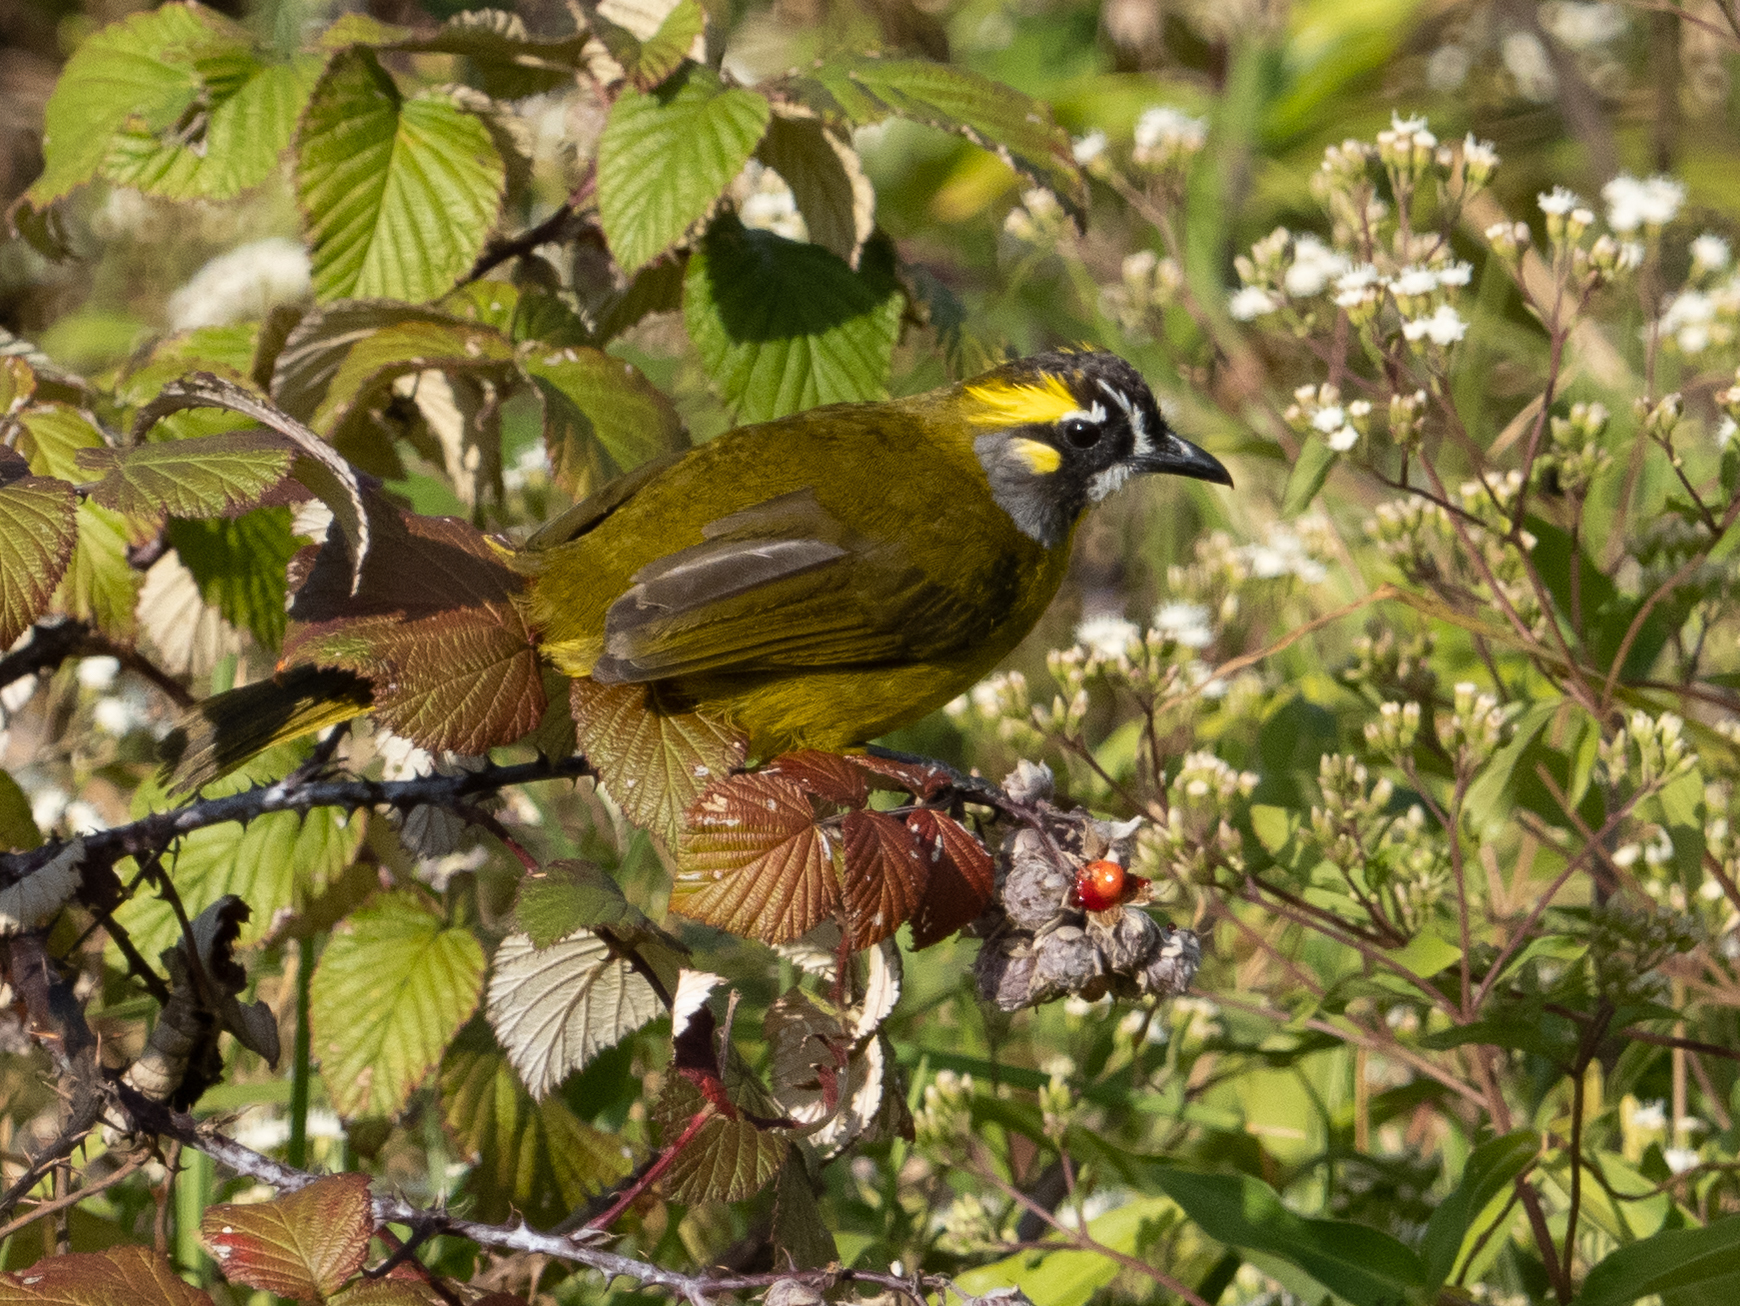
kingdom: Animalia
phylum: Chordata
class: Aves
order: Passeriformes
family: Pycnonotidae
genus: Pycnonotus
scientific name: Pycnonotus penicillatus
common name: Yellow-eared bulbul
